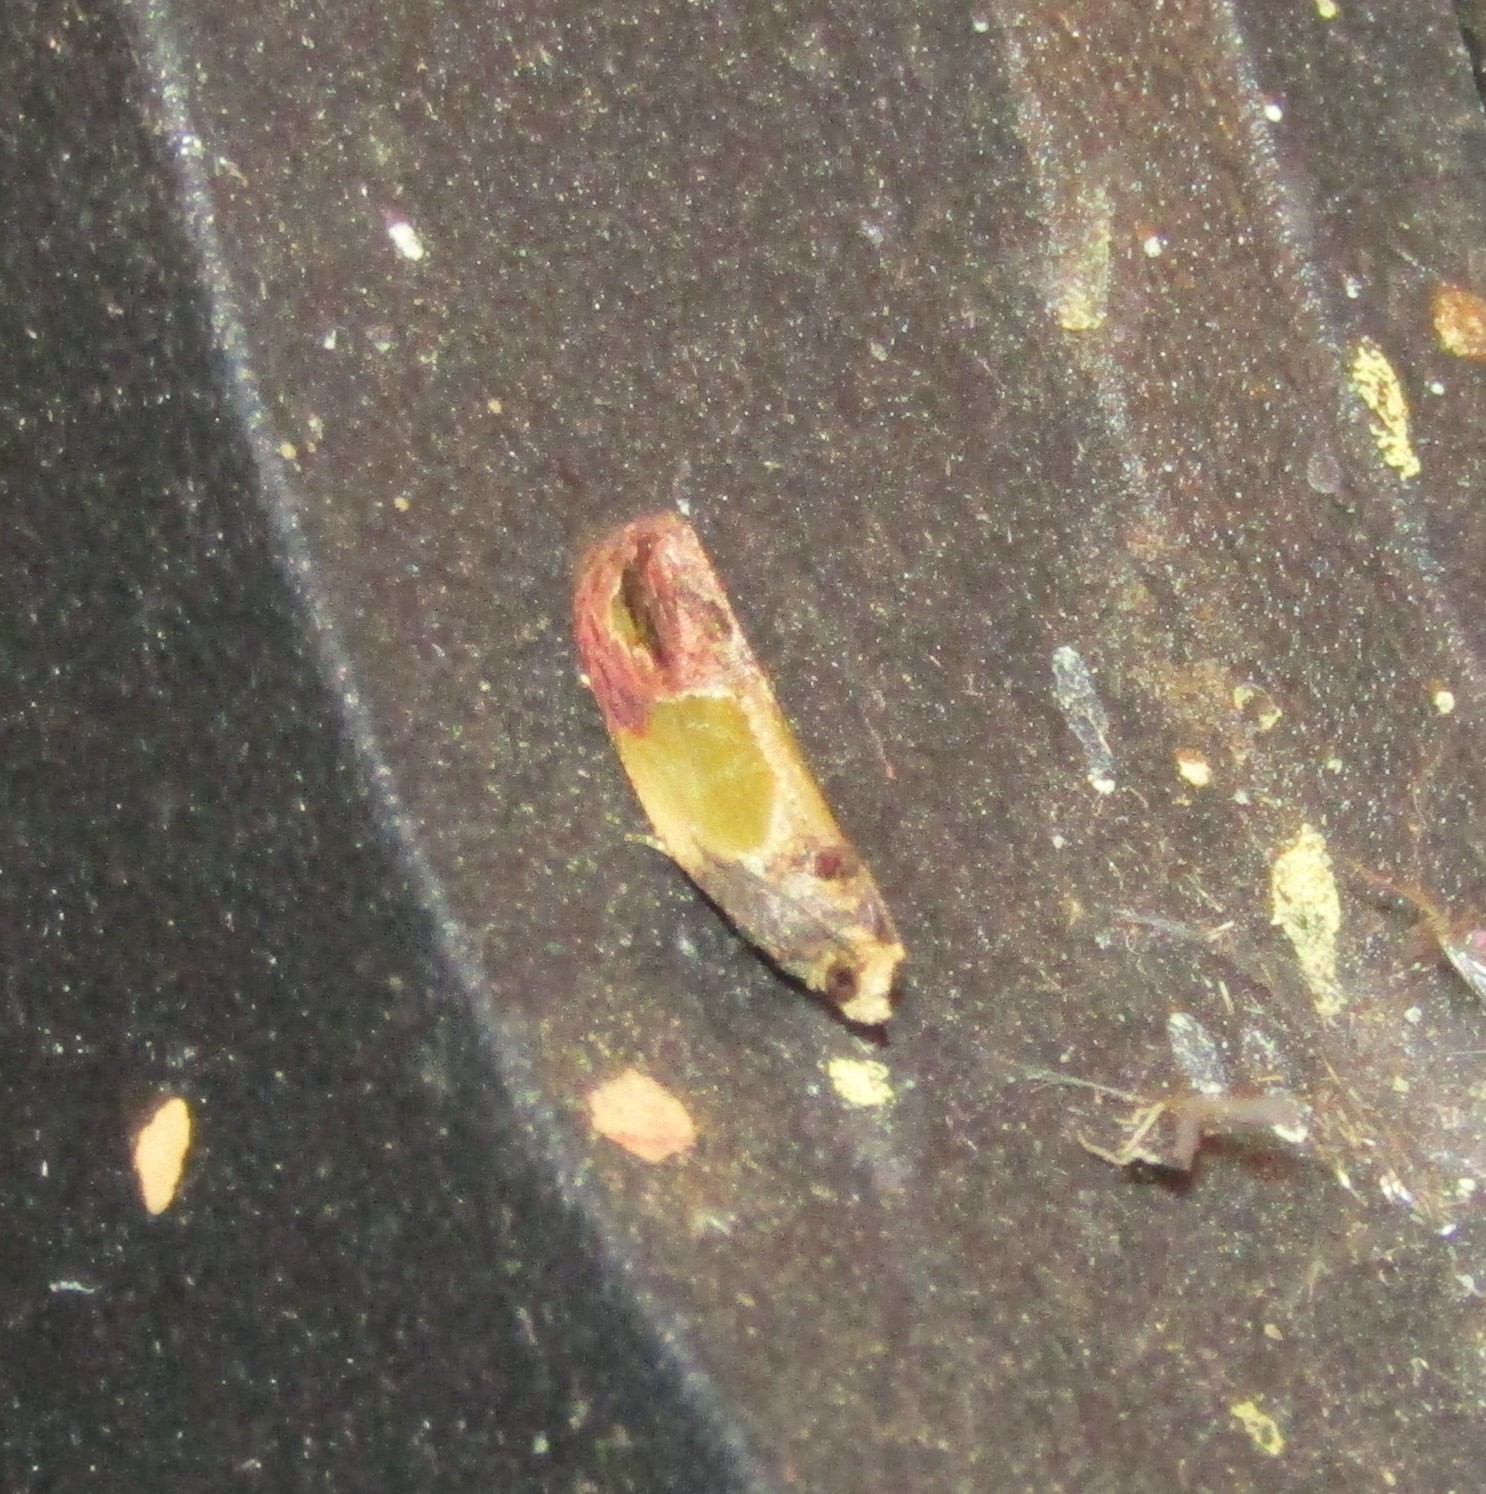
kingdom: Animalia
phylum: Arthropoda
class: Insecta
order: Lepidoptera
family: Tortricidae
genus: Eumarozia
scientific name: Eumarozia malachitana
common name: Sculptured moth
